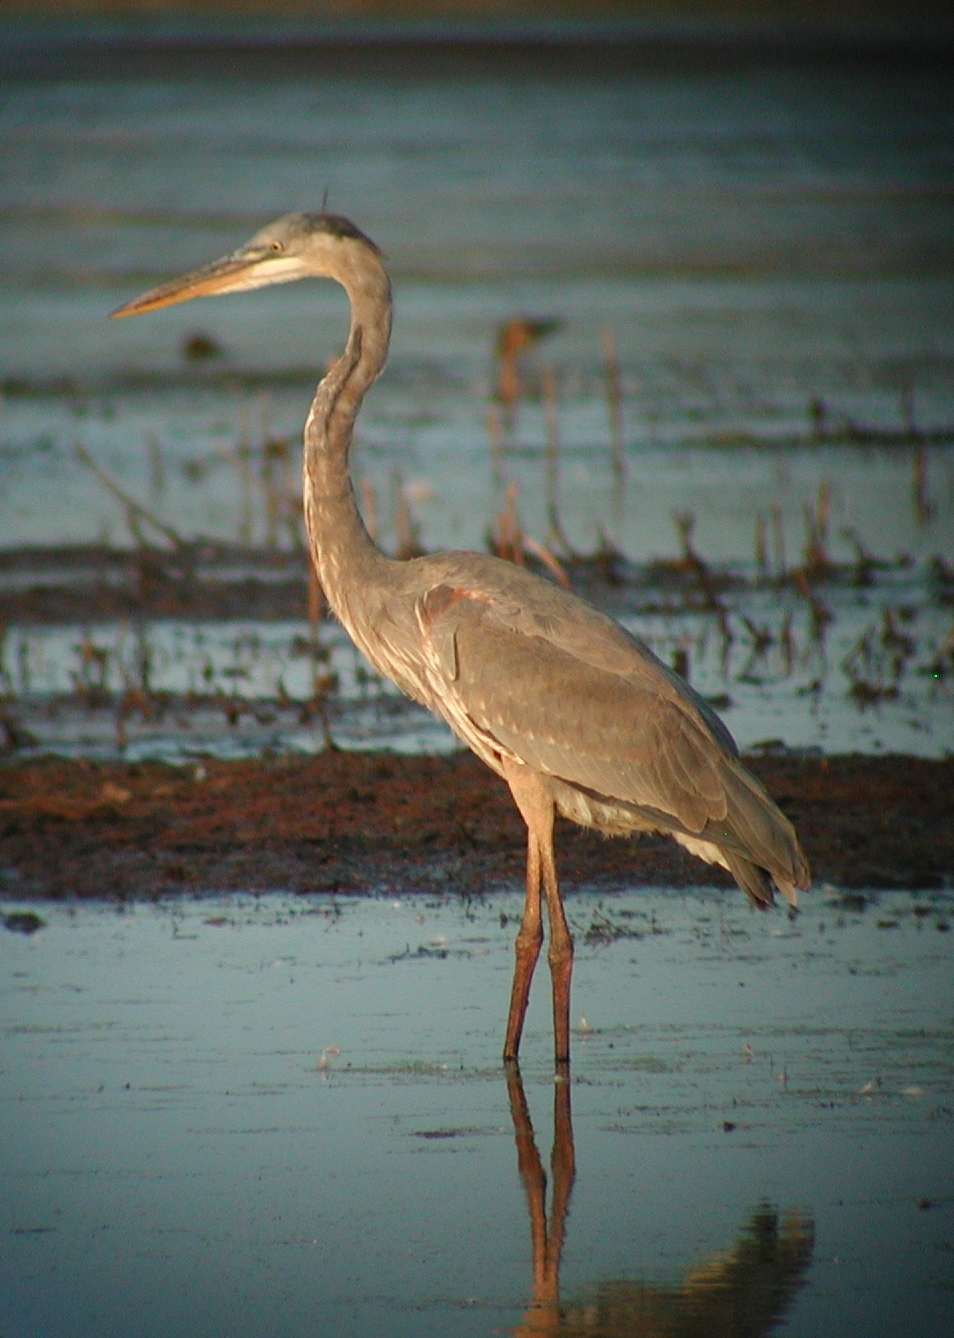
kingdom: Animalia
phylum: Chordata
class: Aves
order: Pelecaniformes
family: Ardeidae
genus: Ardea
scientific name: Ardea herodias
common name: Great blue heron
